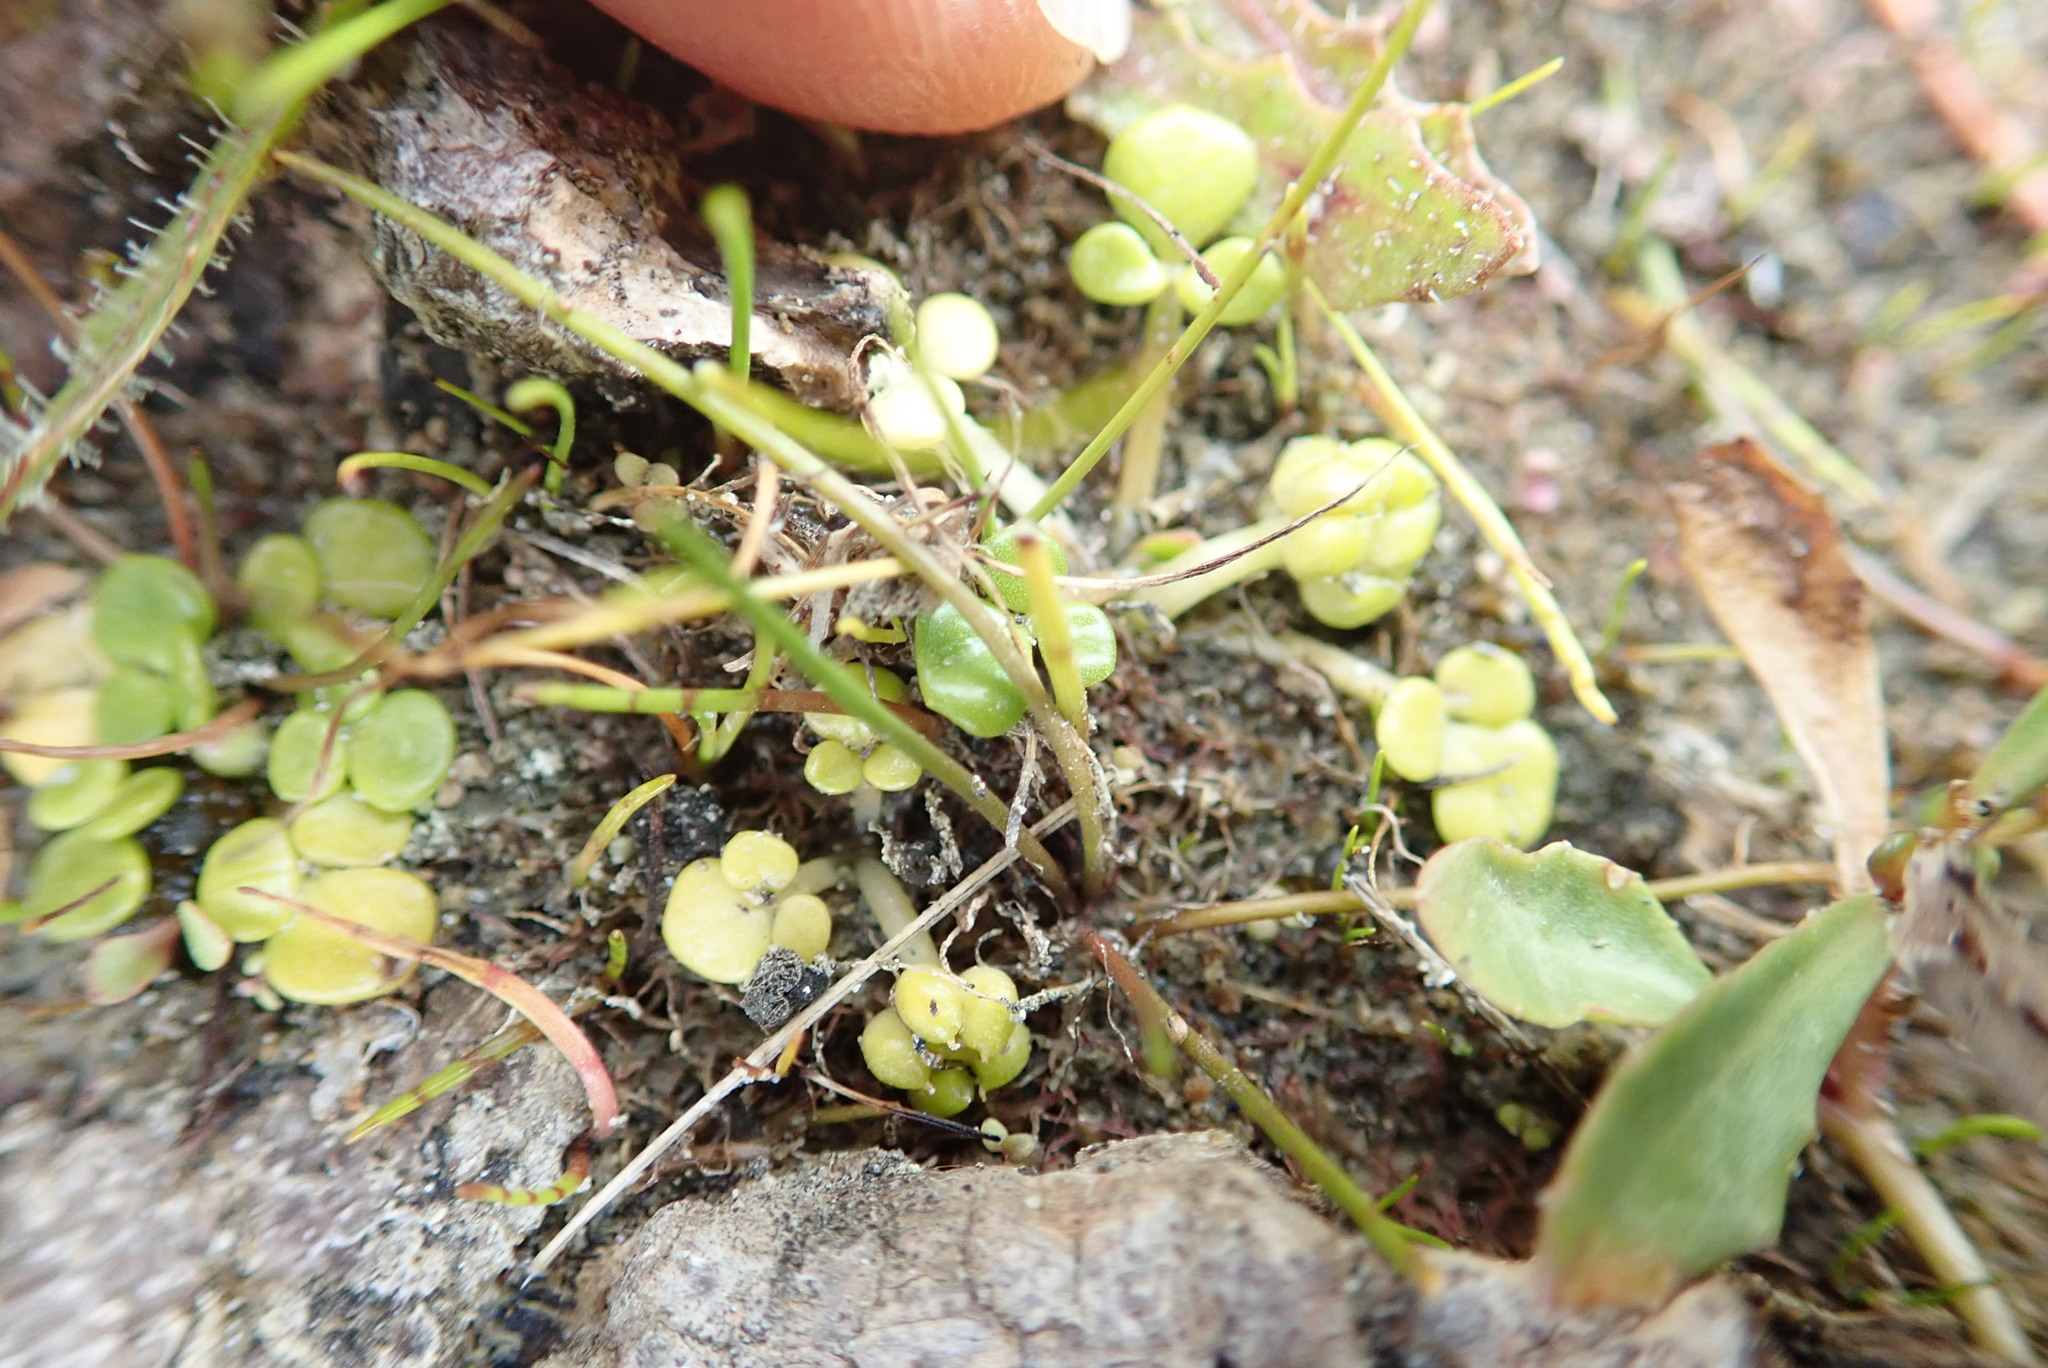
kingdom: Plantae
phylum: Tracheophyta
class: Magnoliopsida
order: Ranunculales
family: Ranunculaceae
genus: Ranunculus
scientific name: Ranunculus acaulis
